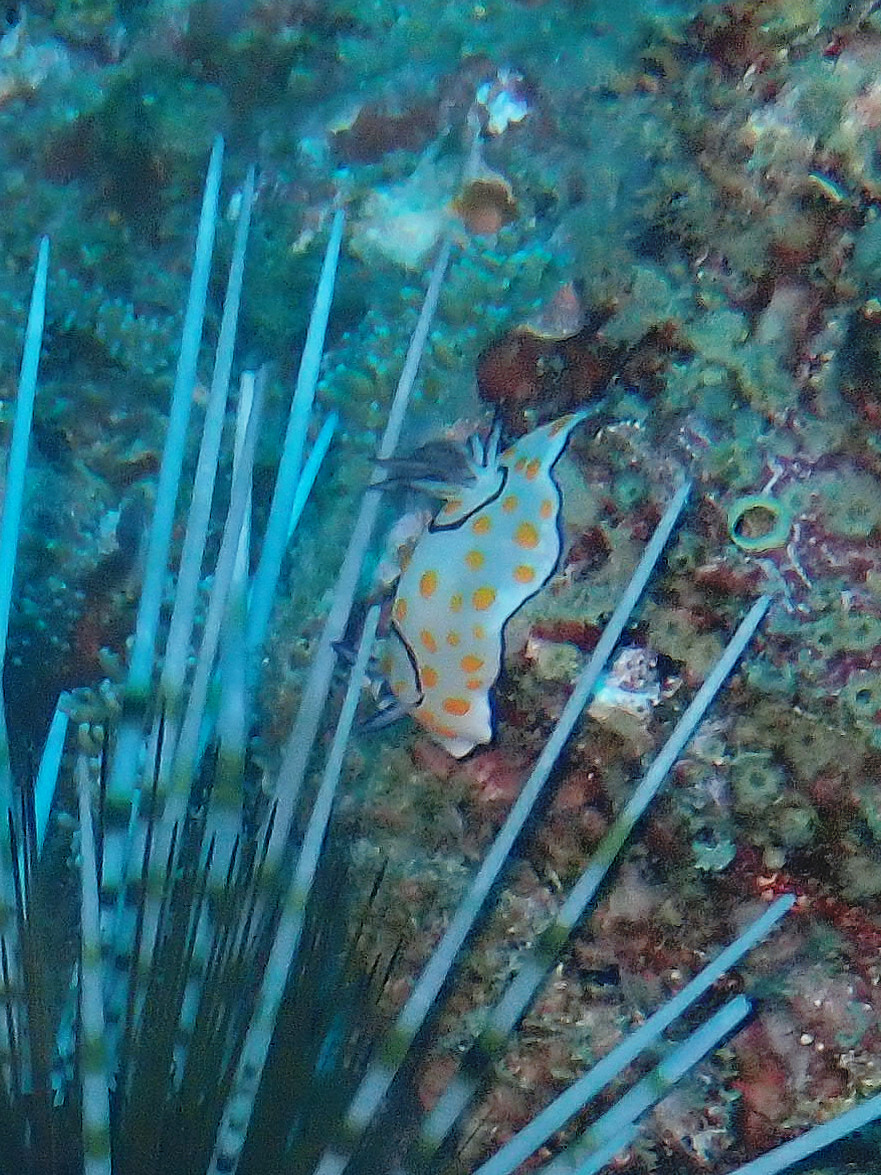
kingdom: Animalia
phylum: Mollusca
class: Gastropoda
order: Nudibranchia
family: Chromodorididae
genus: Goniobranchus
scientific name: Goniobranchus annulatus
